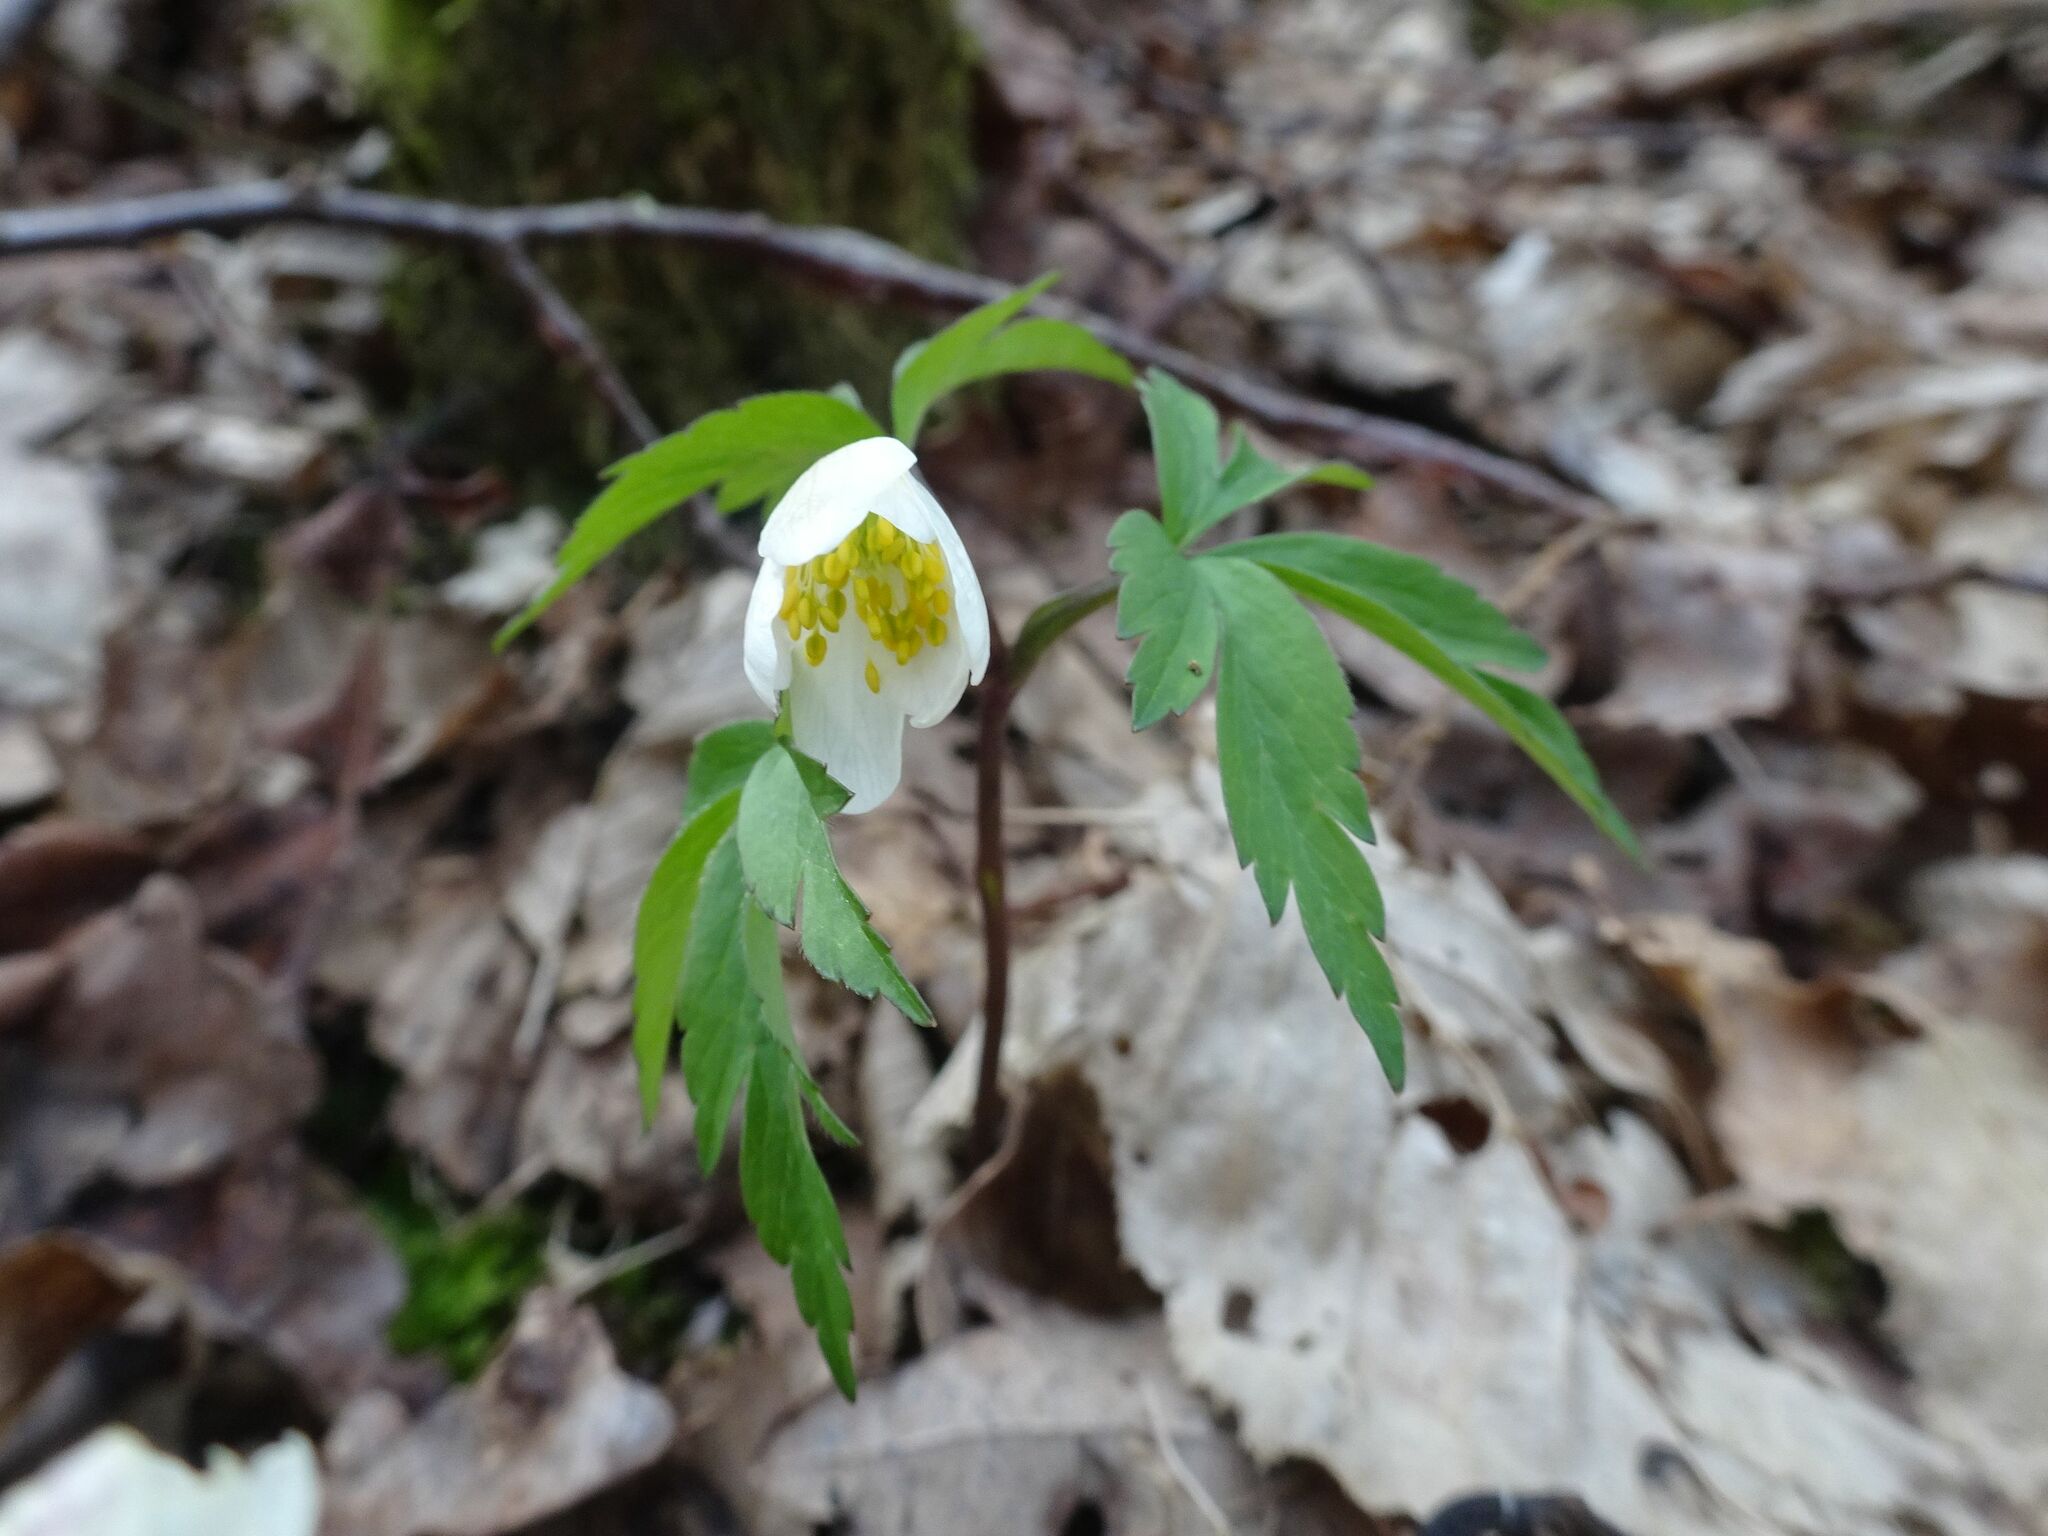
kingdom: Plantae
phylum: Tracheophyta
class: Magnoliopsida
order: Ranunculales
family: Ranunculaceae
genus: Anemone
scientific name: Anemone nemorosa
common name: Wood anemone
